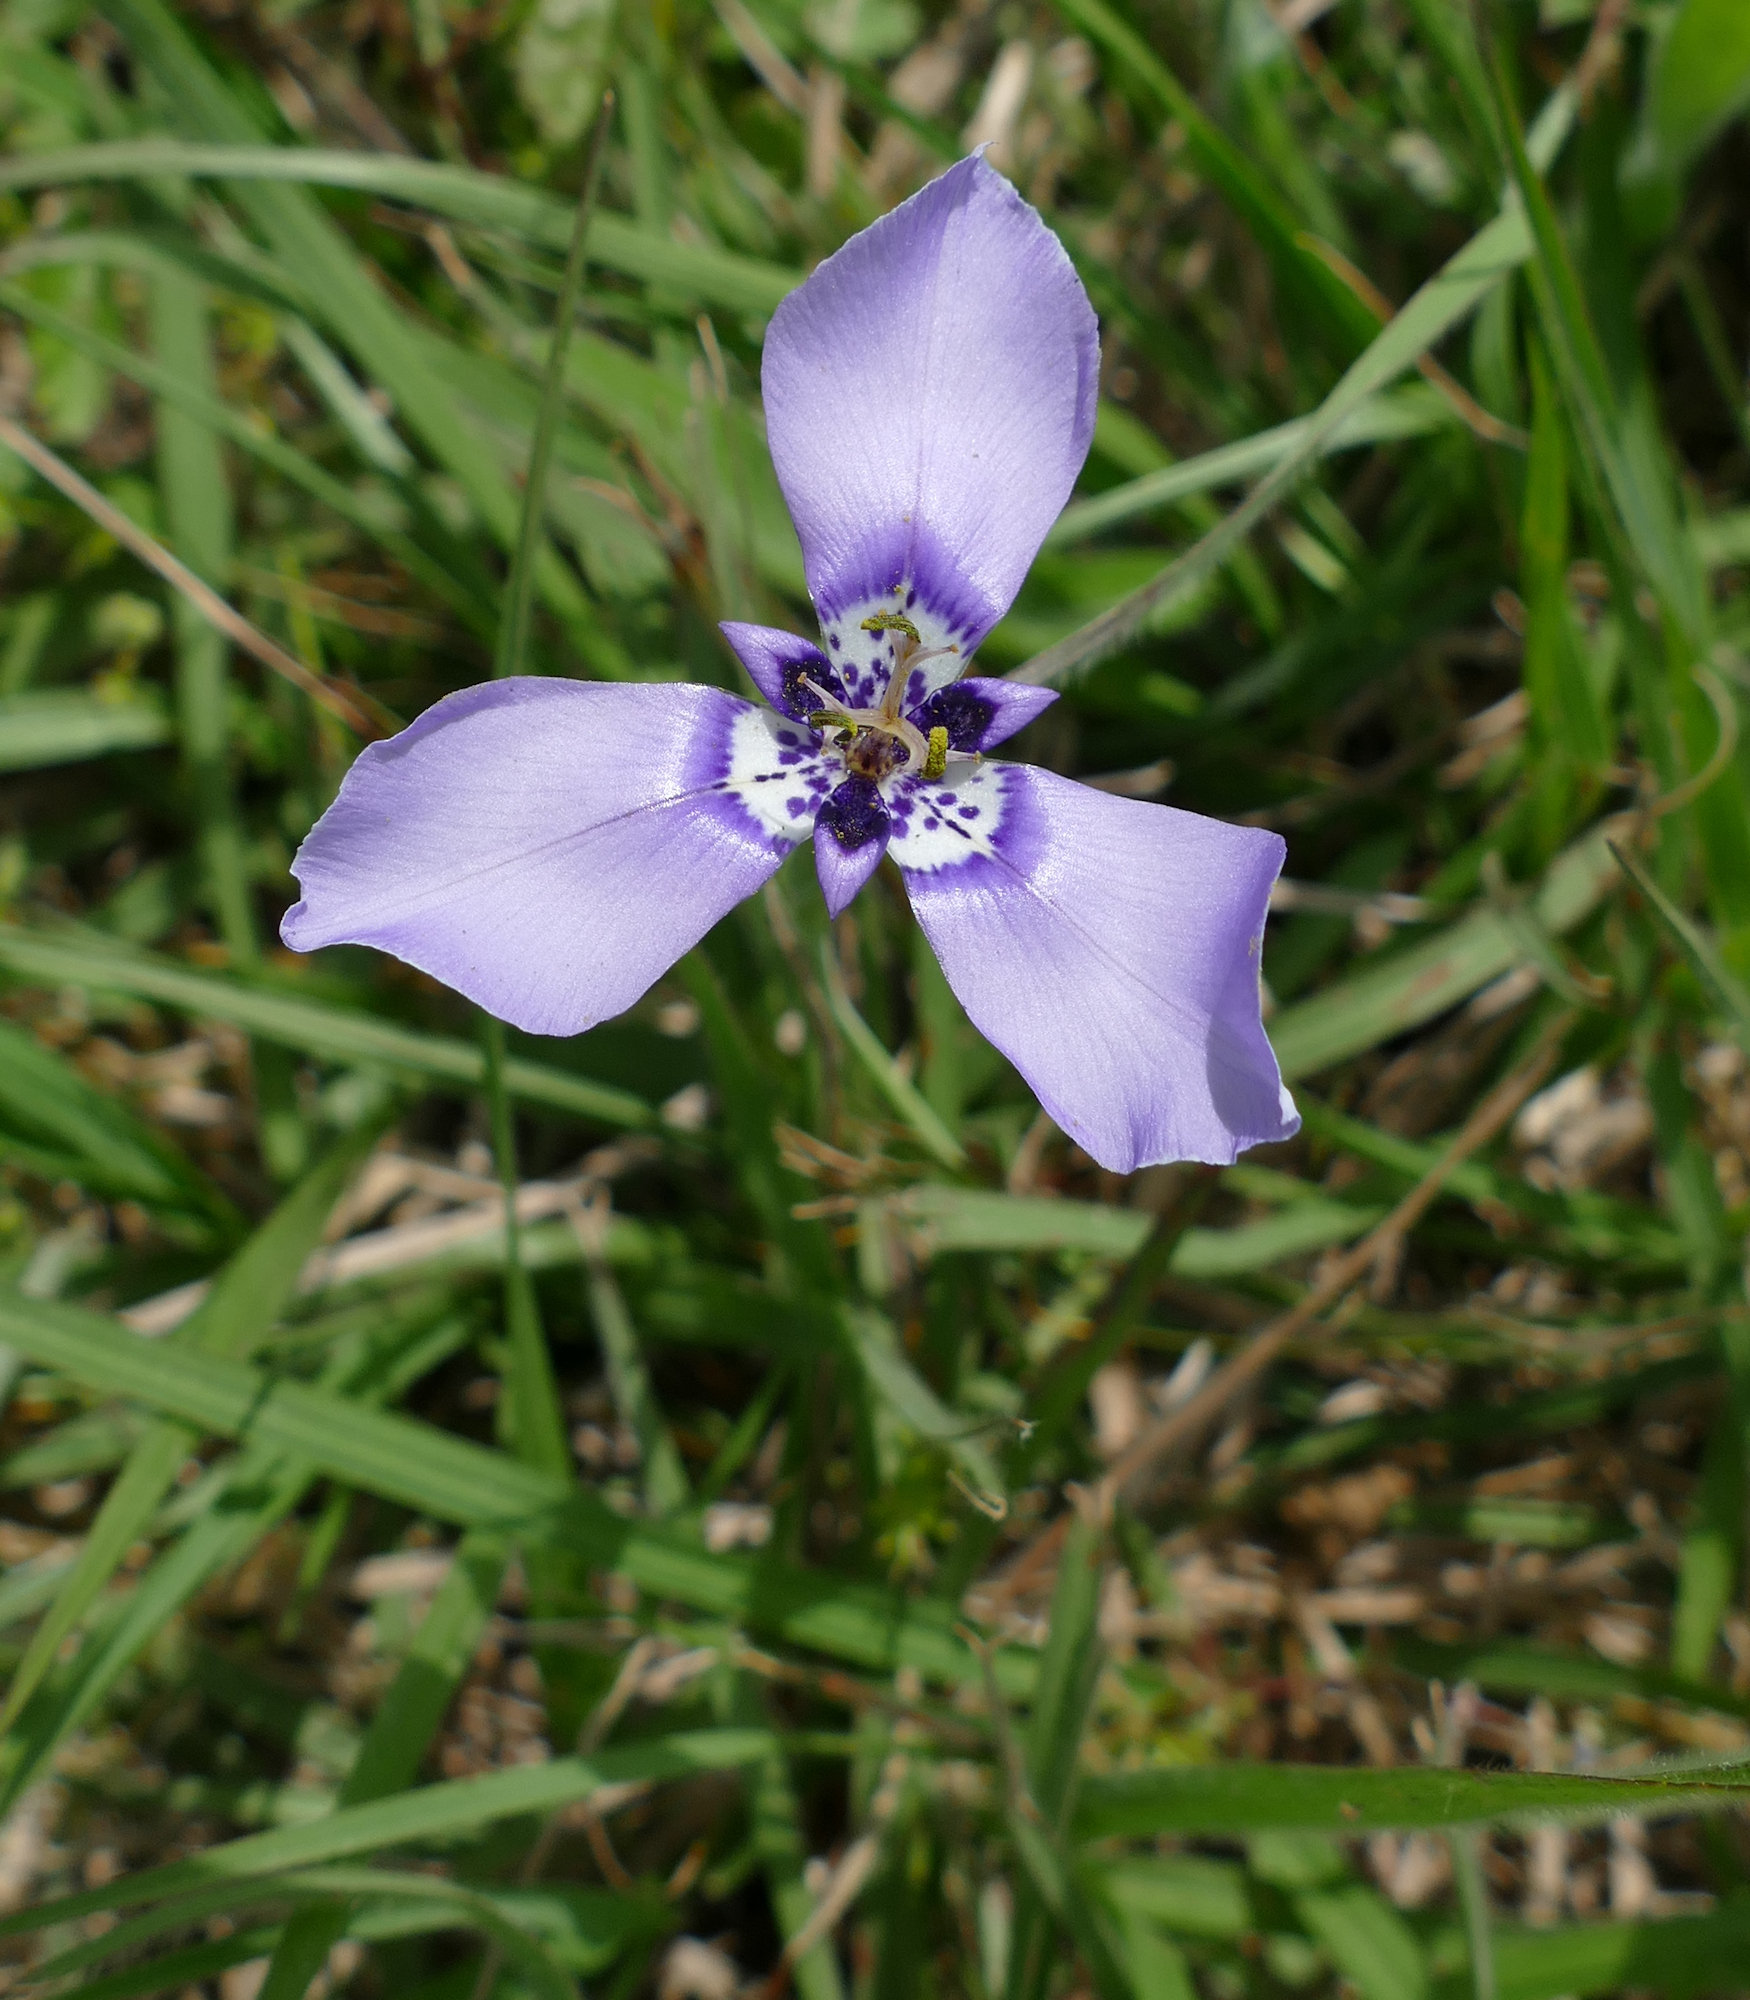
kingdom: Plantae
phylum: Tracheophyta
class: Liliopsida
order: Asparagales
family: Iridaceae
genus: Herbertia
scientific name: Herbertia lahue
